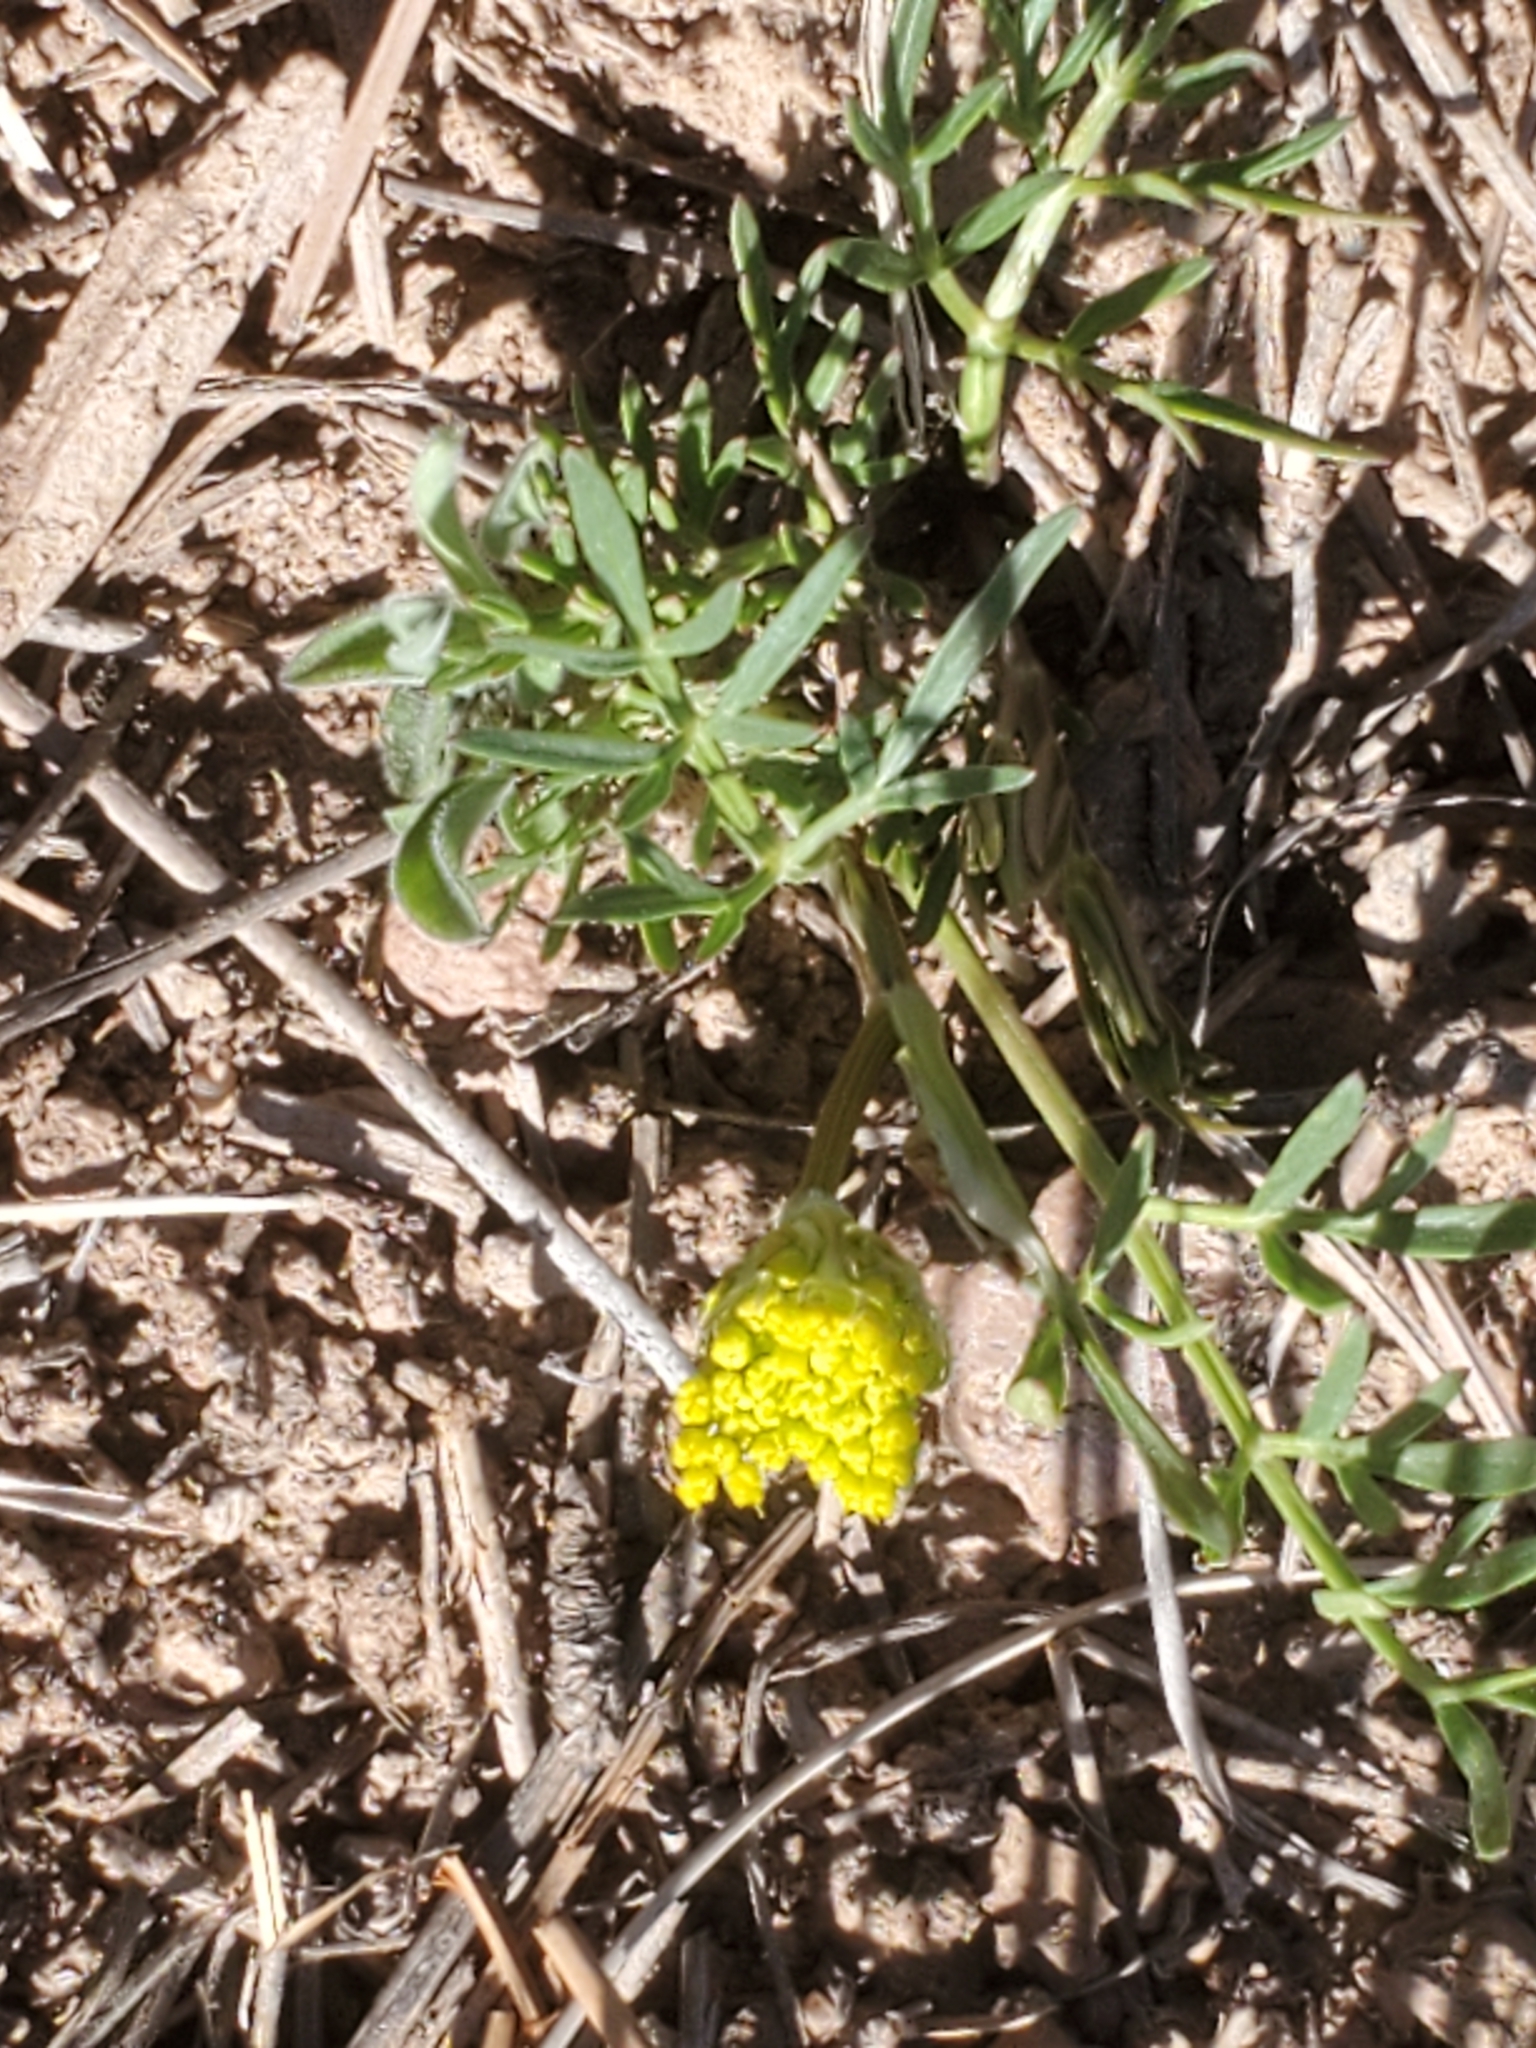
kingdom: Plantae
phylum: Tracheophyta
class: Magnoliopsida
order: Apiales
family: Apiaceae
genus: Cymopterus
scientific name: Cymopterus lemmonii
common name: Lemmon's spring-parsley
